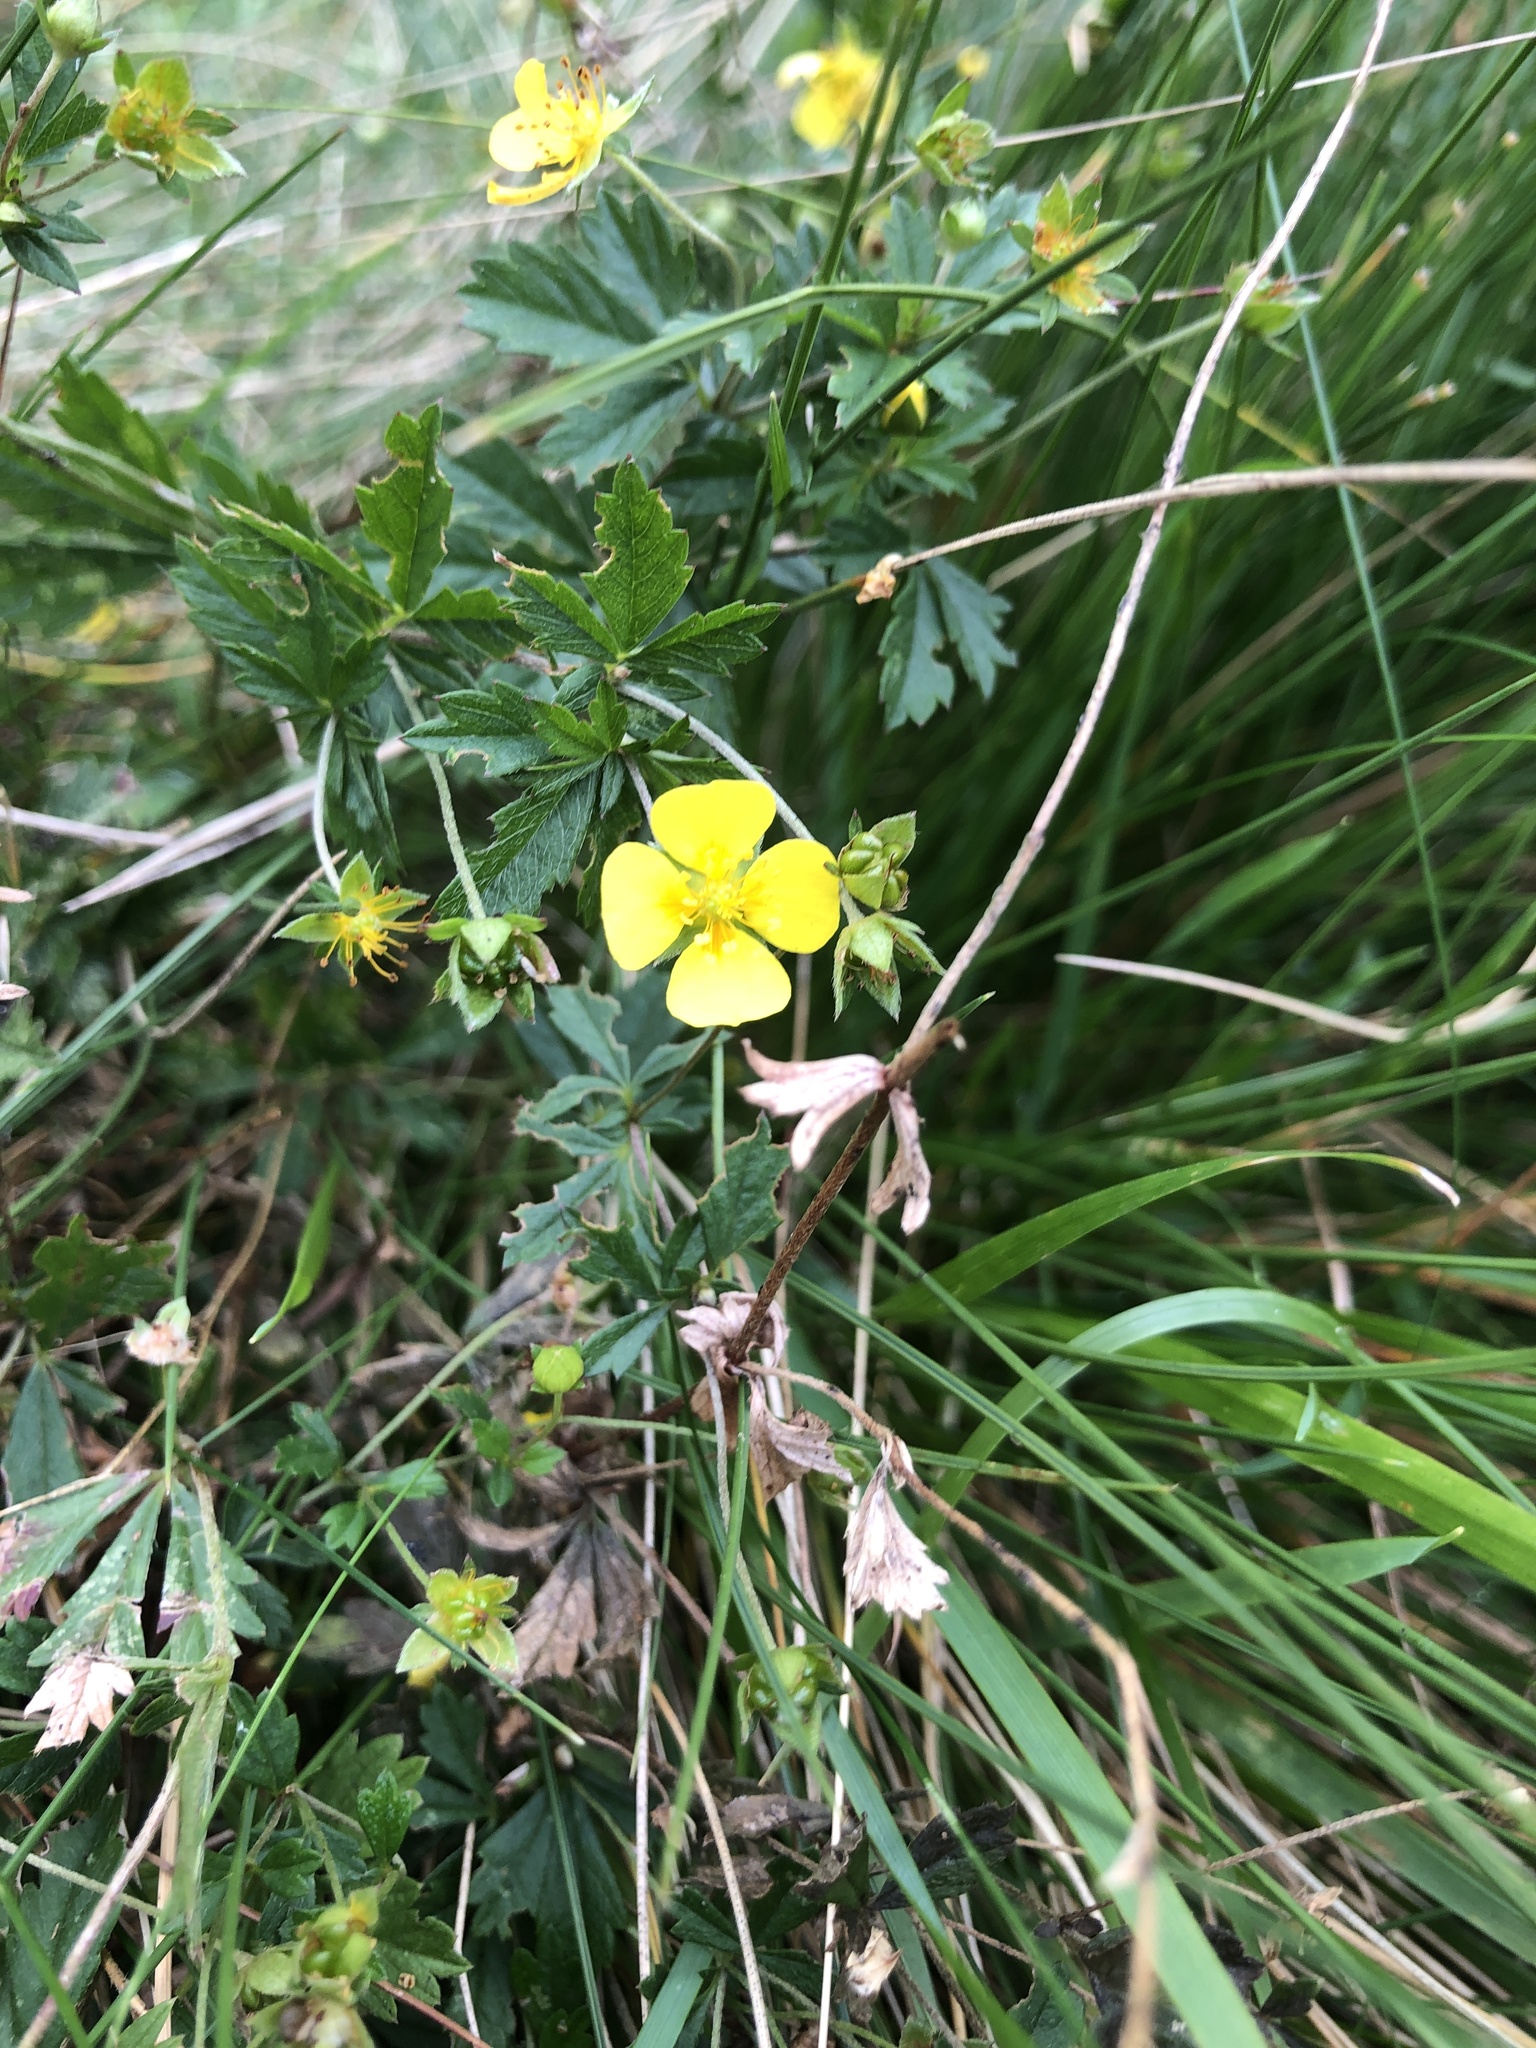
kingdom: Plantae
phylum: Tracheophyta
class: Magnoliopsida
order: Rosales
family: Rosaceae
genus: Potentilla
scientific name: Potentilla erecta
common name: Tormentil
